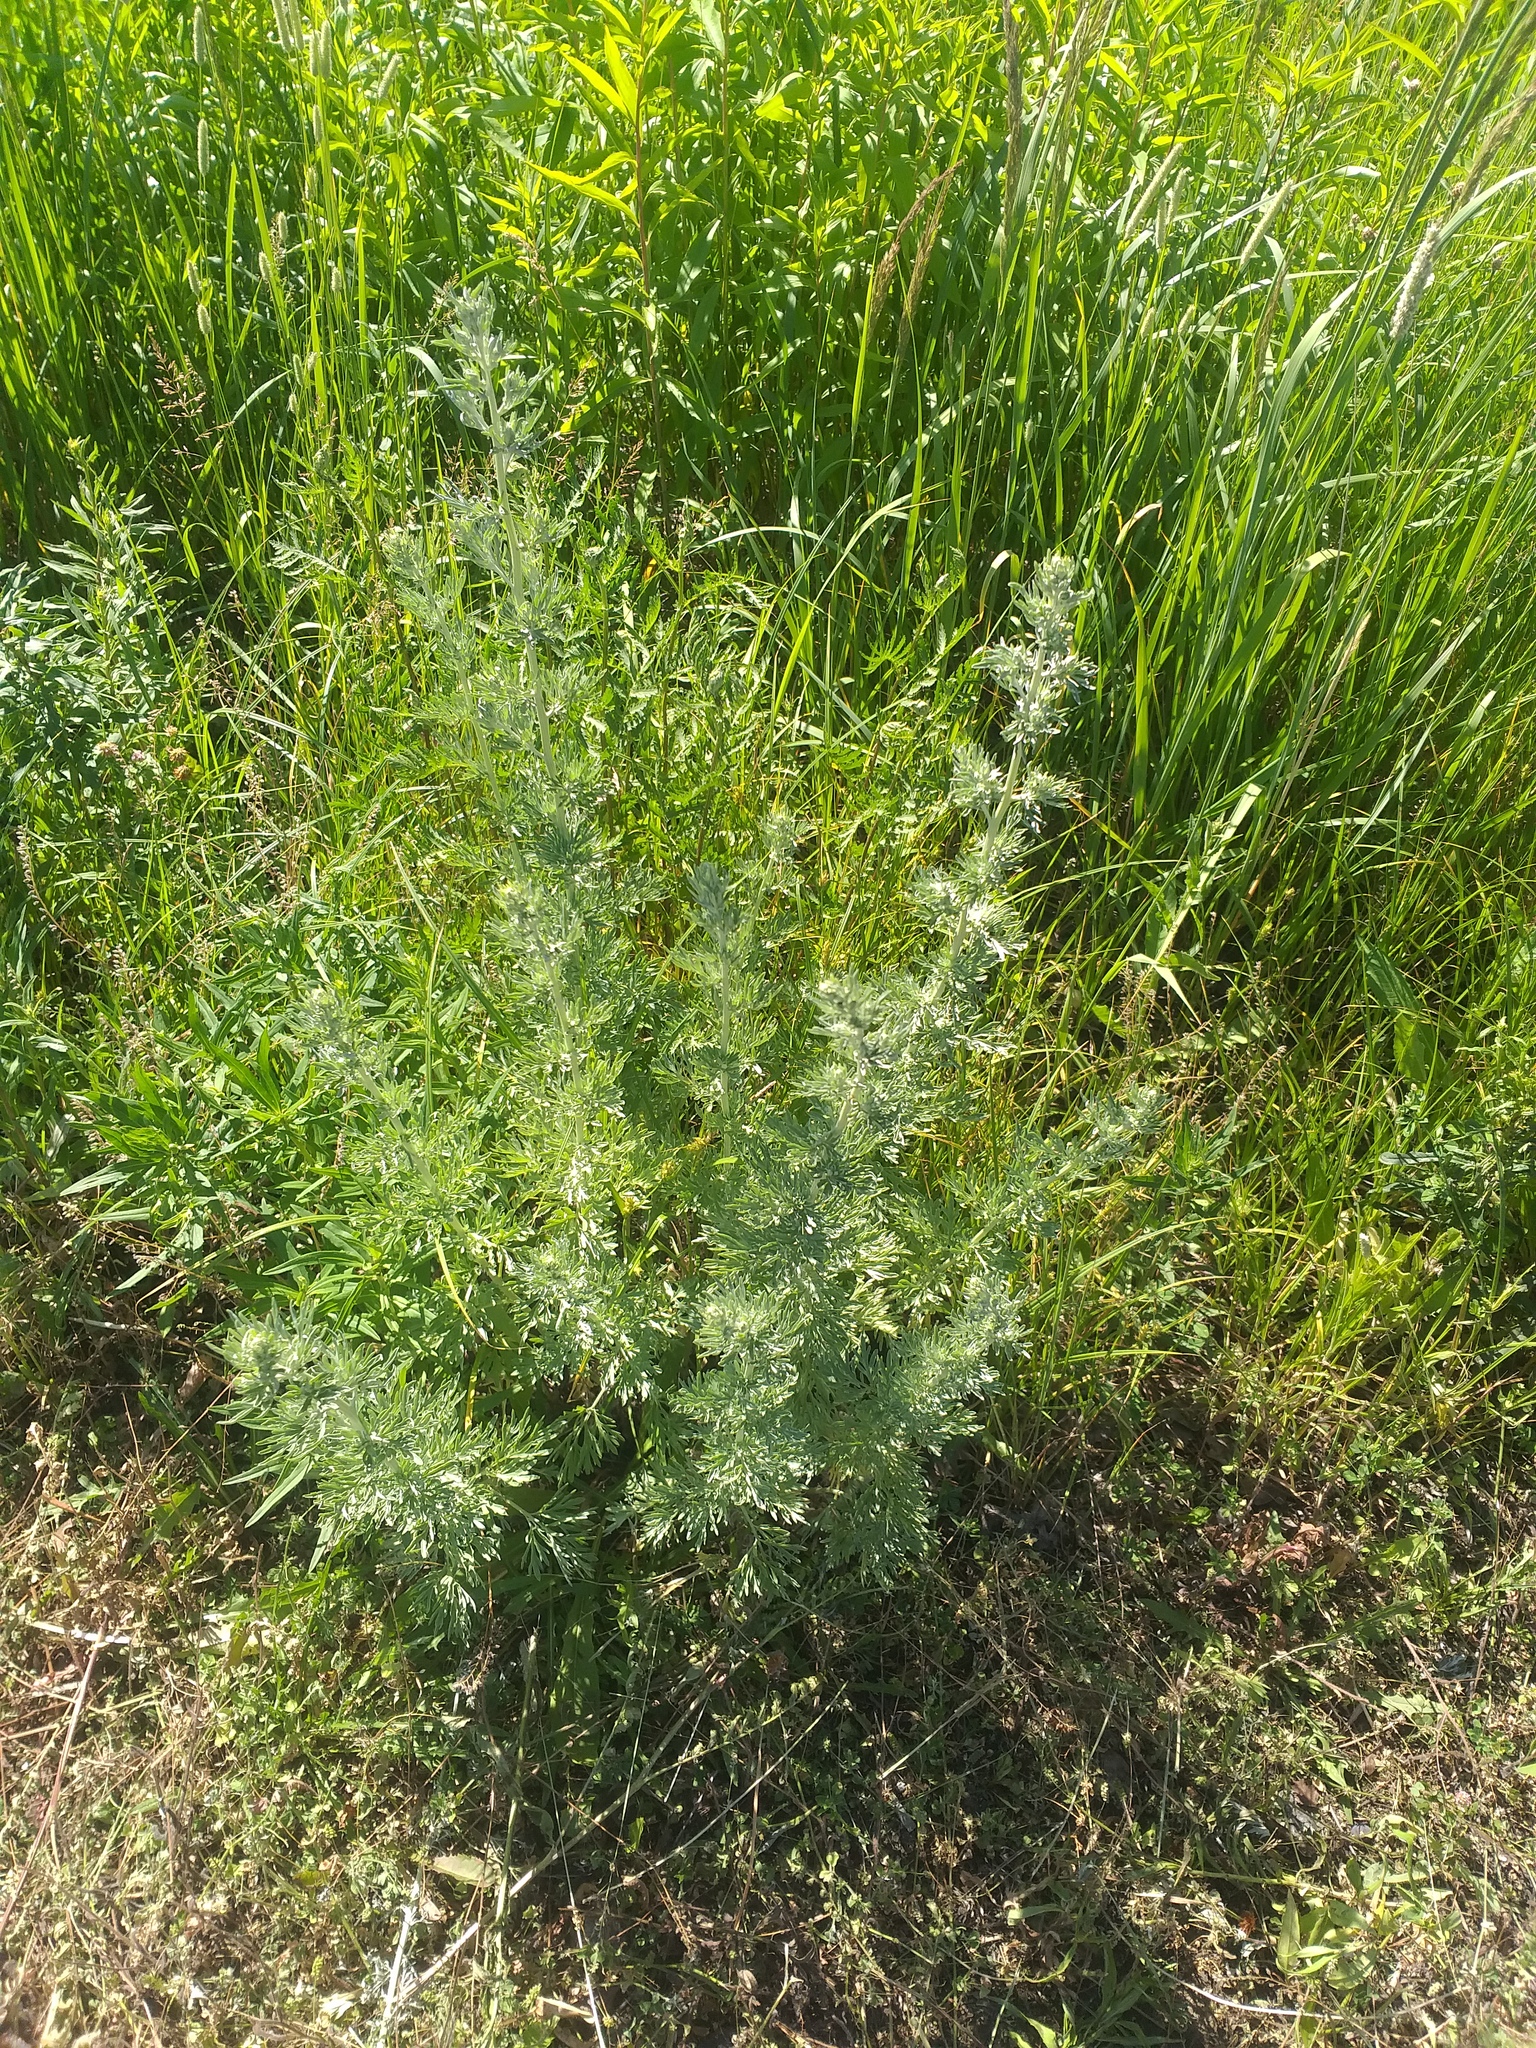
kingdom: Plantae
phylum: Tracheophyta
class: Magnoliopsida
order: Asterales
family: Asteraceae
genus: Artemisia
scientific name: Artemisia absinthium
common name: Wormwood
